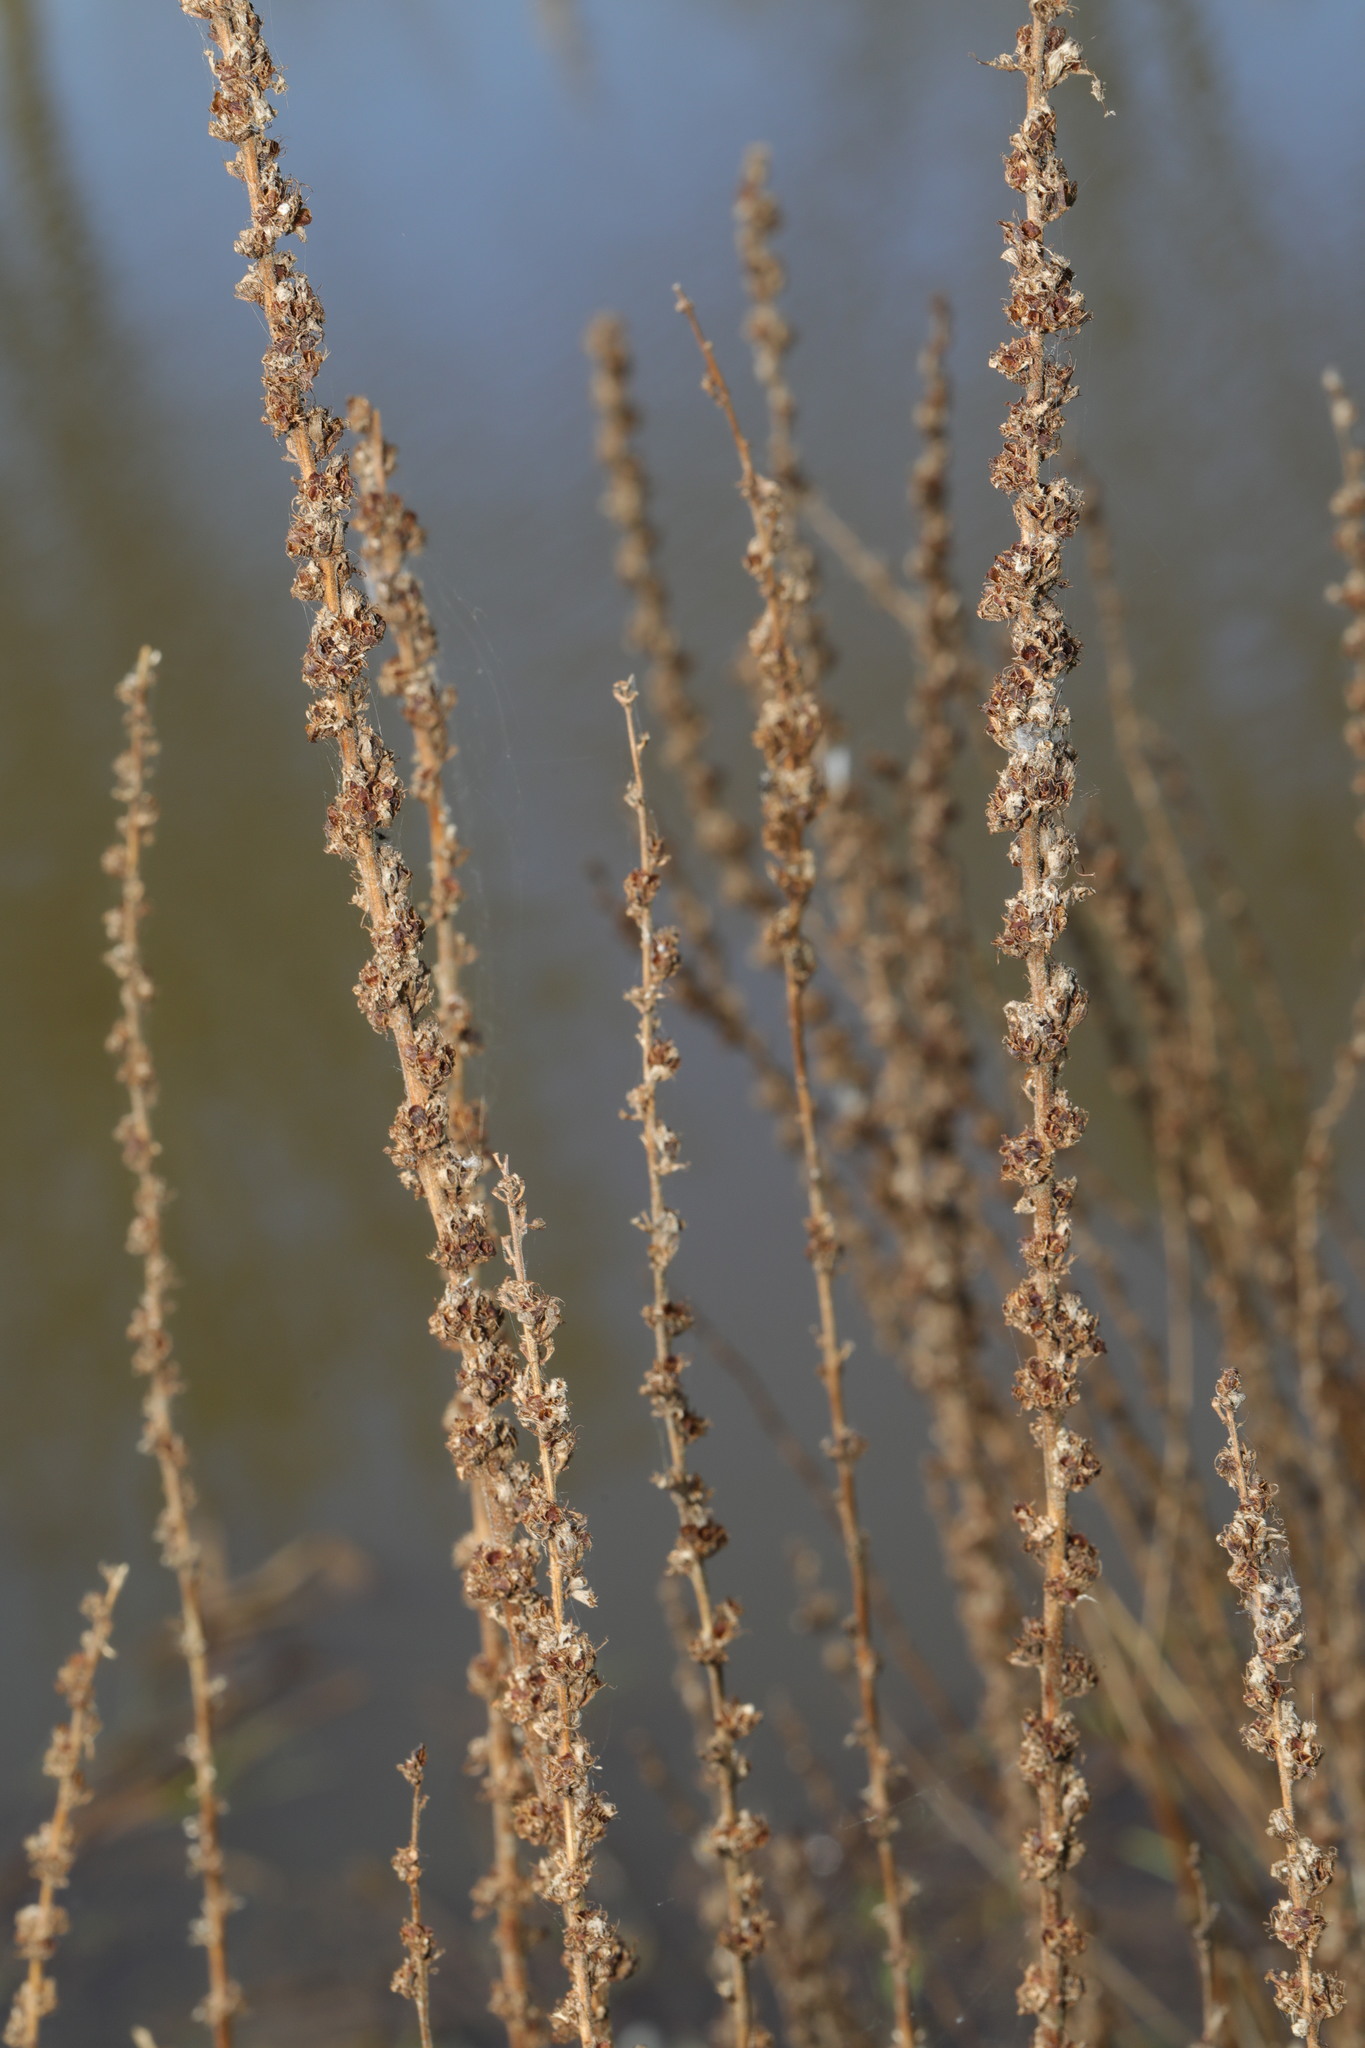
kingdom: Plantae
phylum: Tracheophyta
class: Magnoliopsida
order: Myrtales
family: Lythraceae
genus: Lythrum
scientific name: Lythrum salicaria
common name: Purple loosestrife
